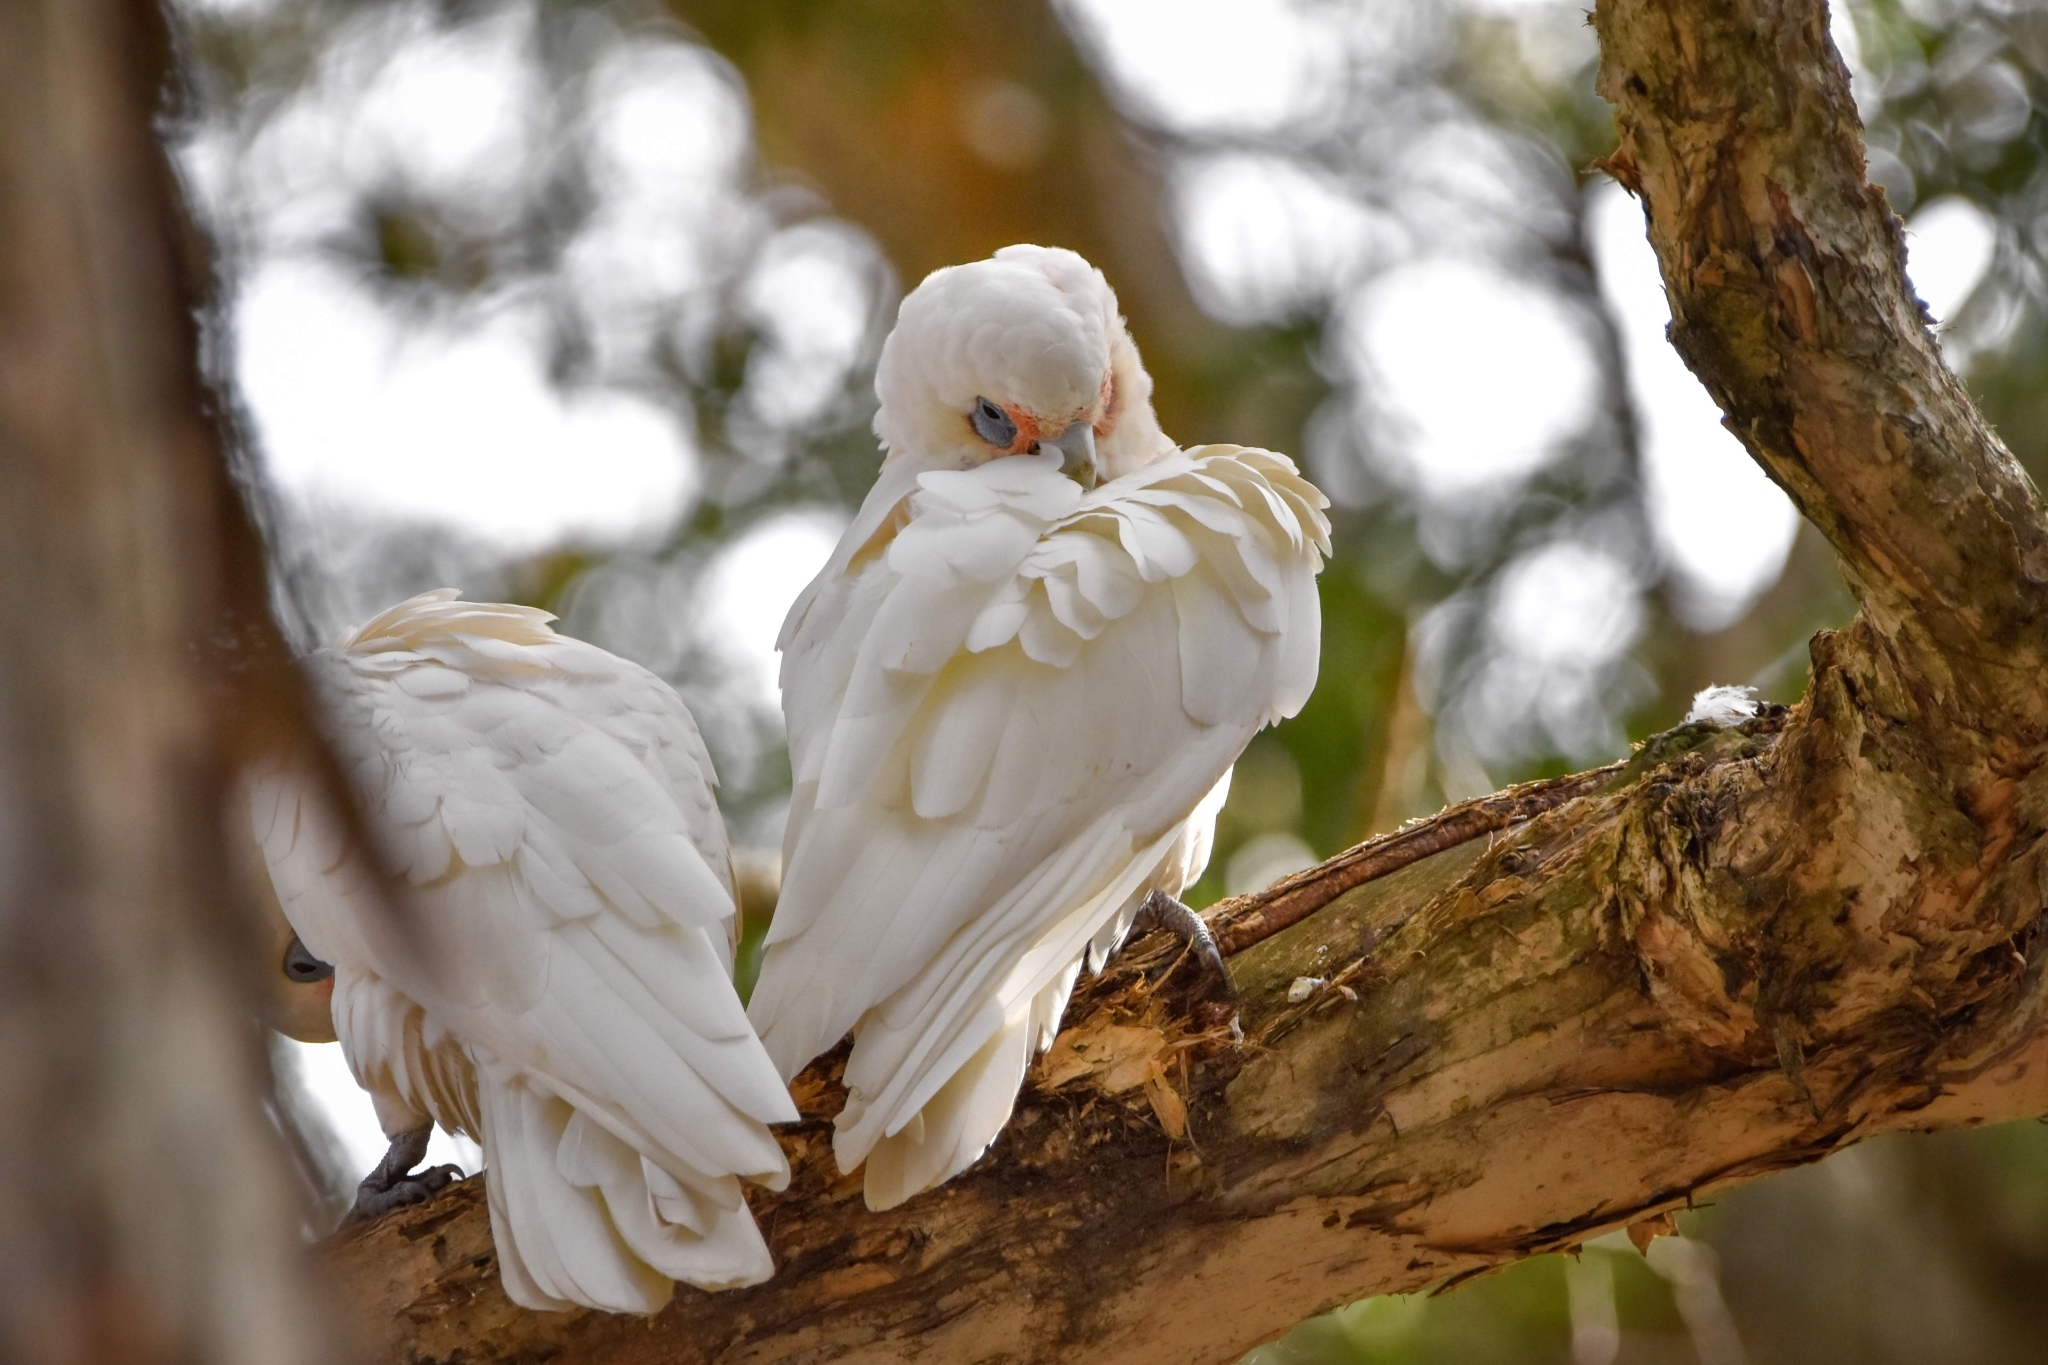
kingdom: Animalia
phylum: Chordata
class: Aves
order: Psittaciformes
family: Psittacidae
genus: Cacatua
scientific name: Cacatua tenuirostris
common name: Long-billed corella
